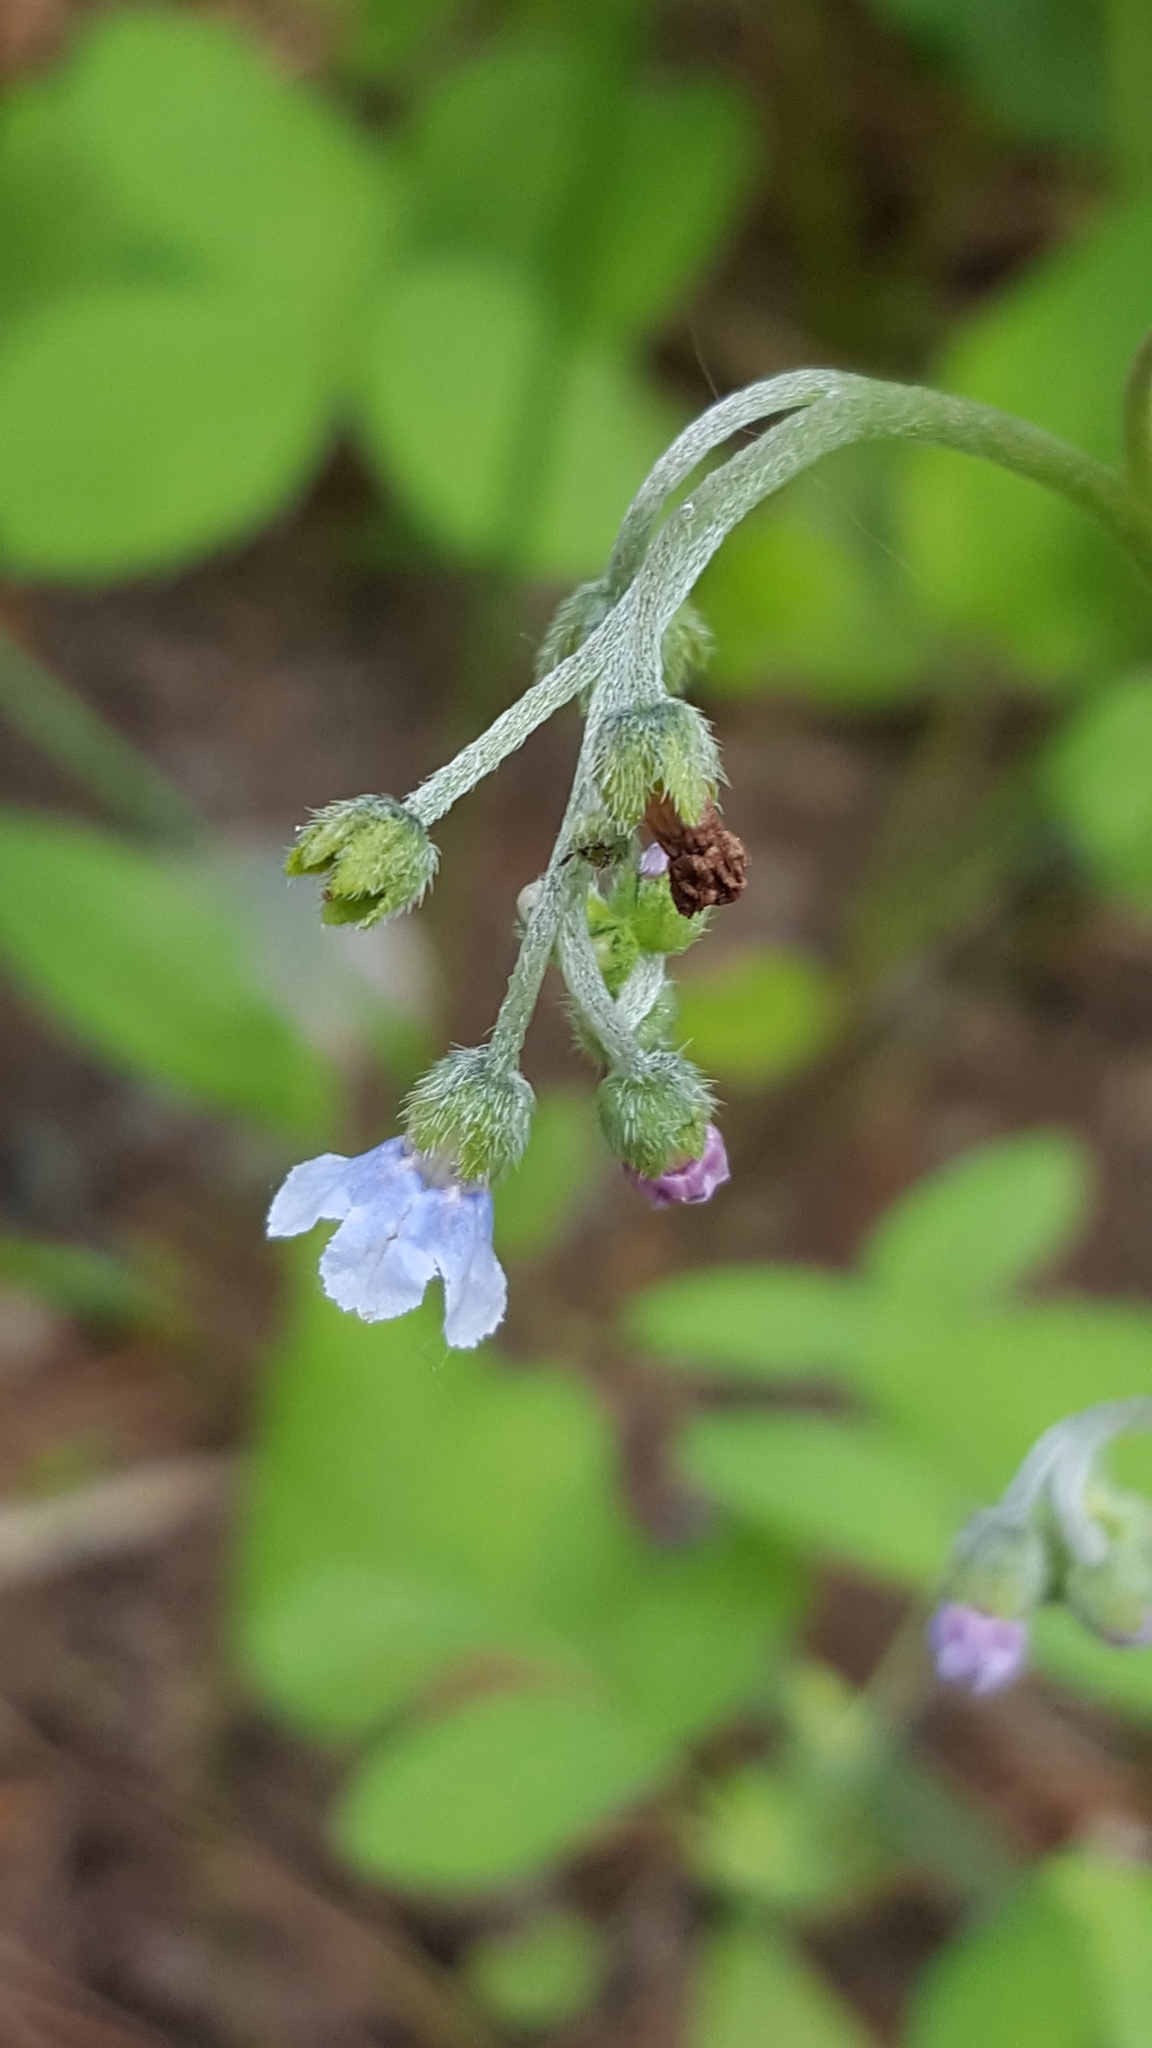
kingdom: Plantae
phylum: Tracheophyta
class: Magnoliopsida
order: Boraginales
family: Boraginaceae
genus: Andersonglossum
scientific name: Andersonglossum boreale
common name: Northern hound's-tongue
